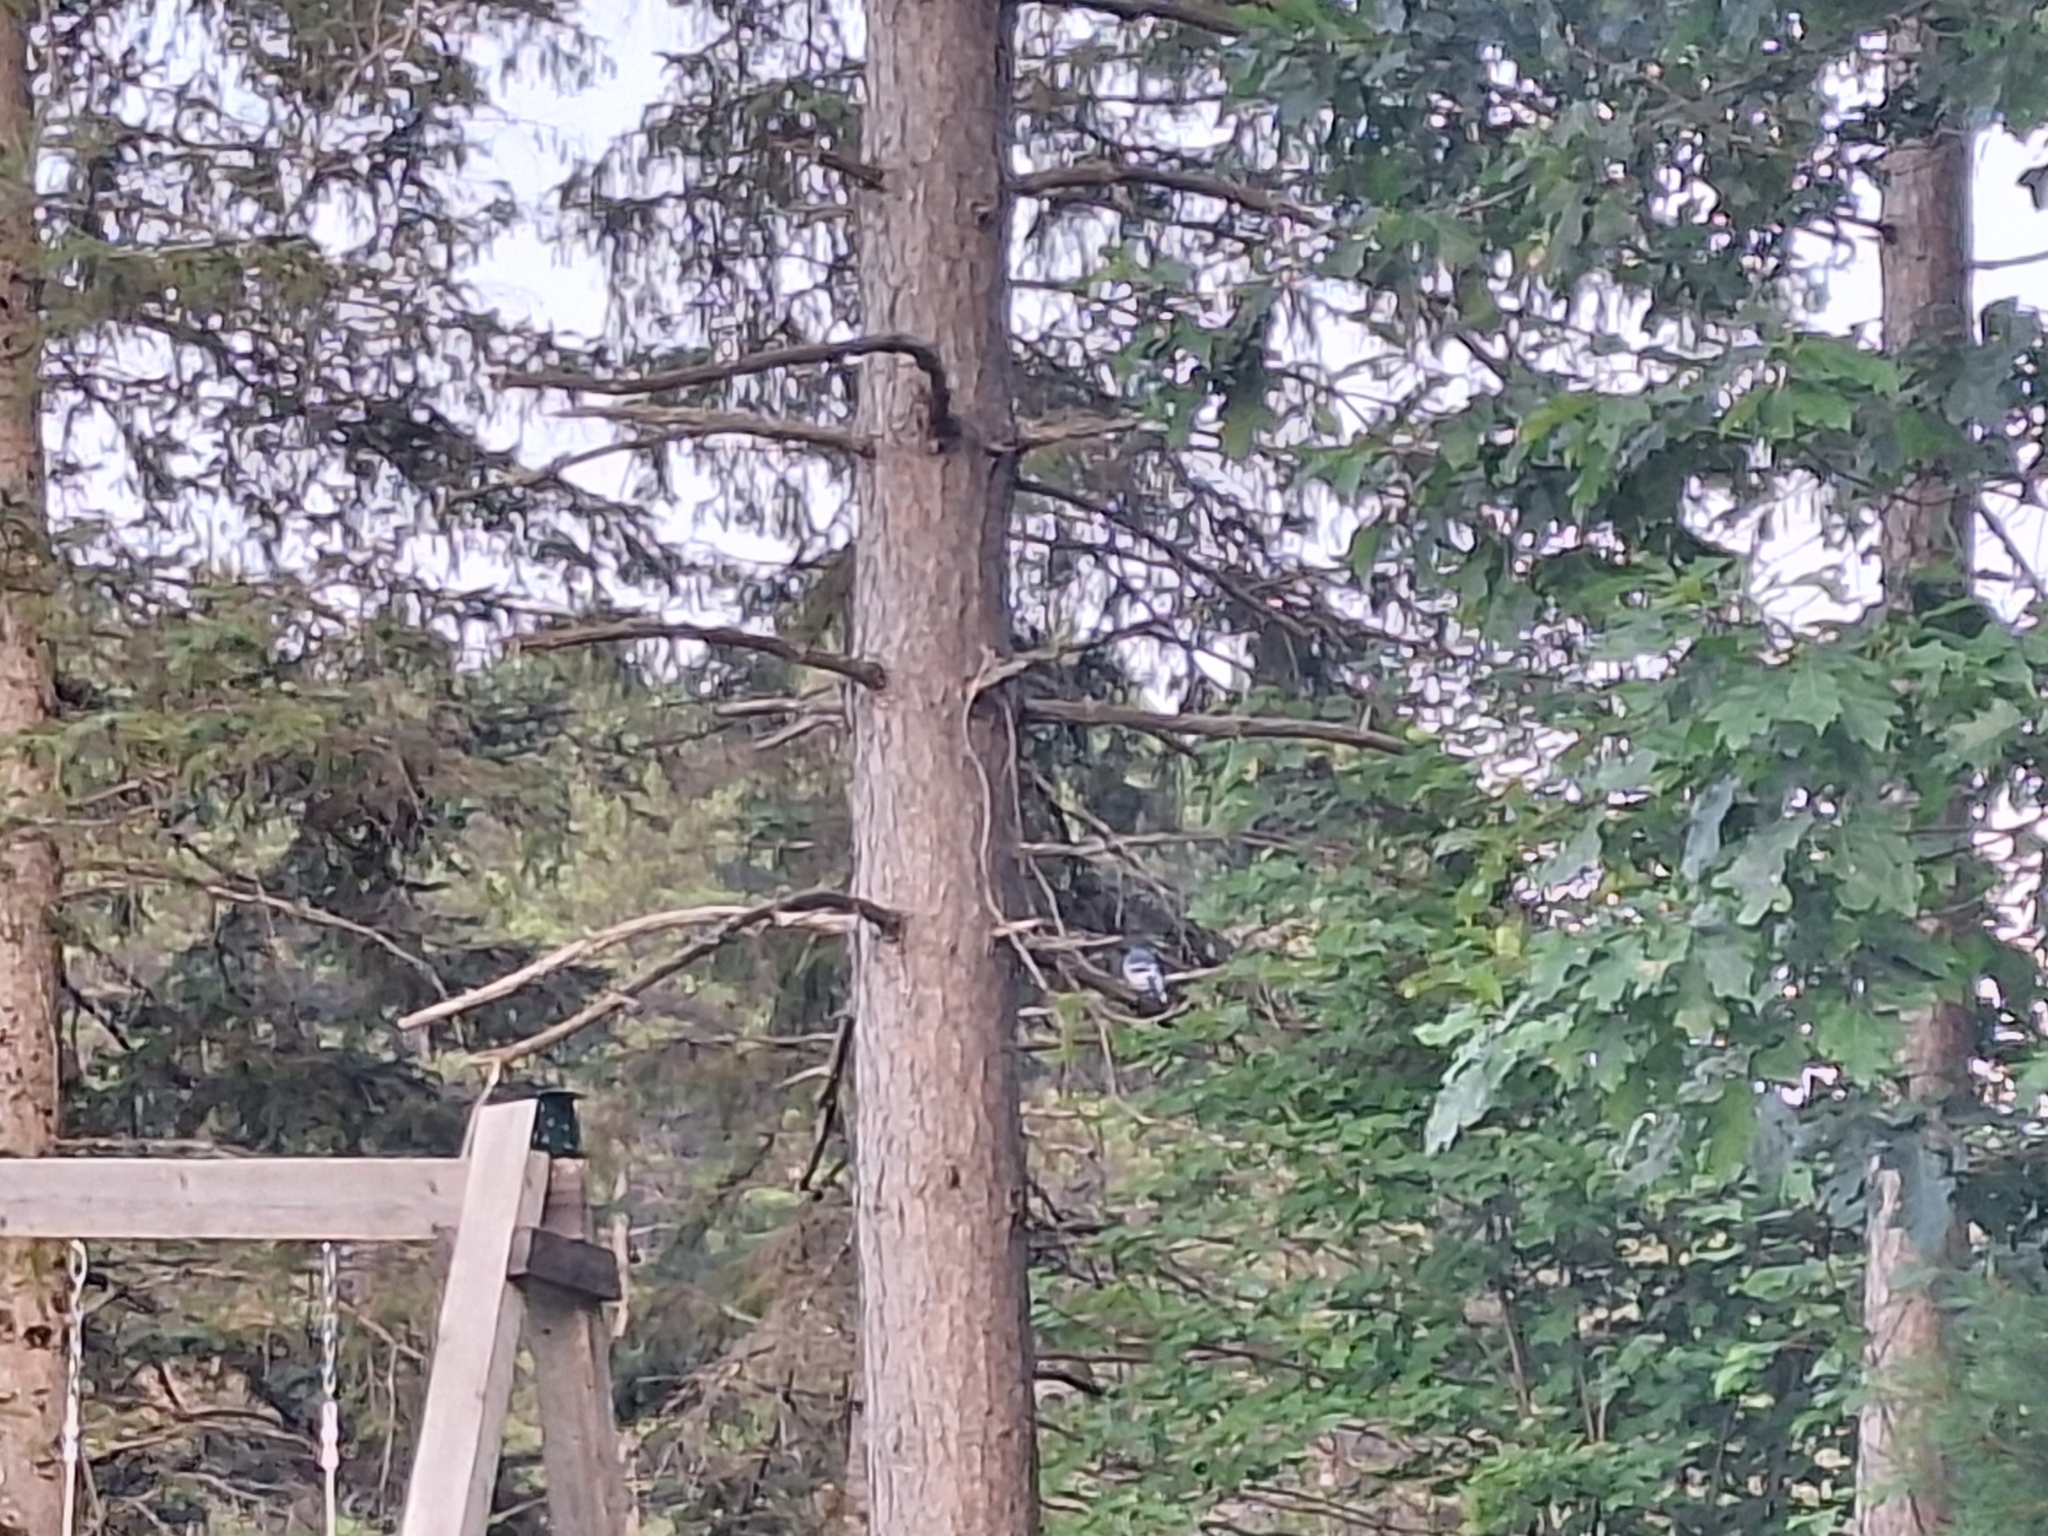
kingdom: Animalia
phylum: Chordata
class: Aves
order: Passeriformes
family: Corvidae
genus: Cyanocitta
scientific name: Cyanocitta cristata
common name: Blue jay
